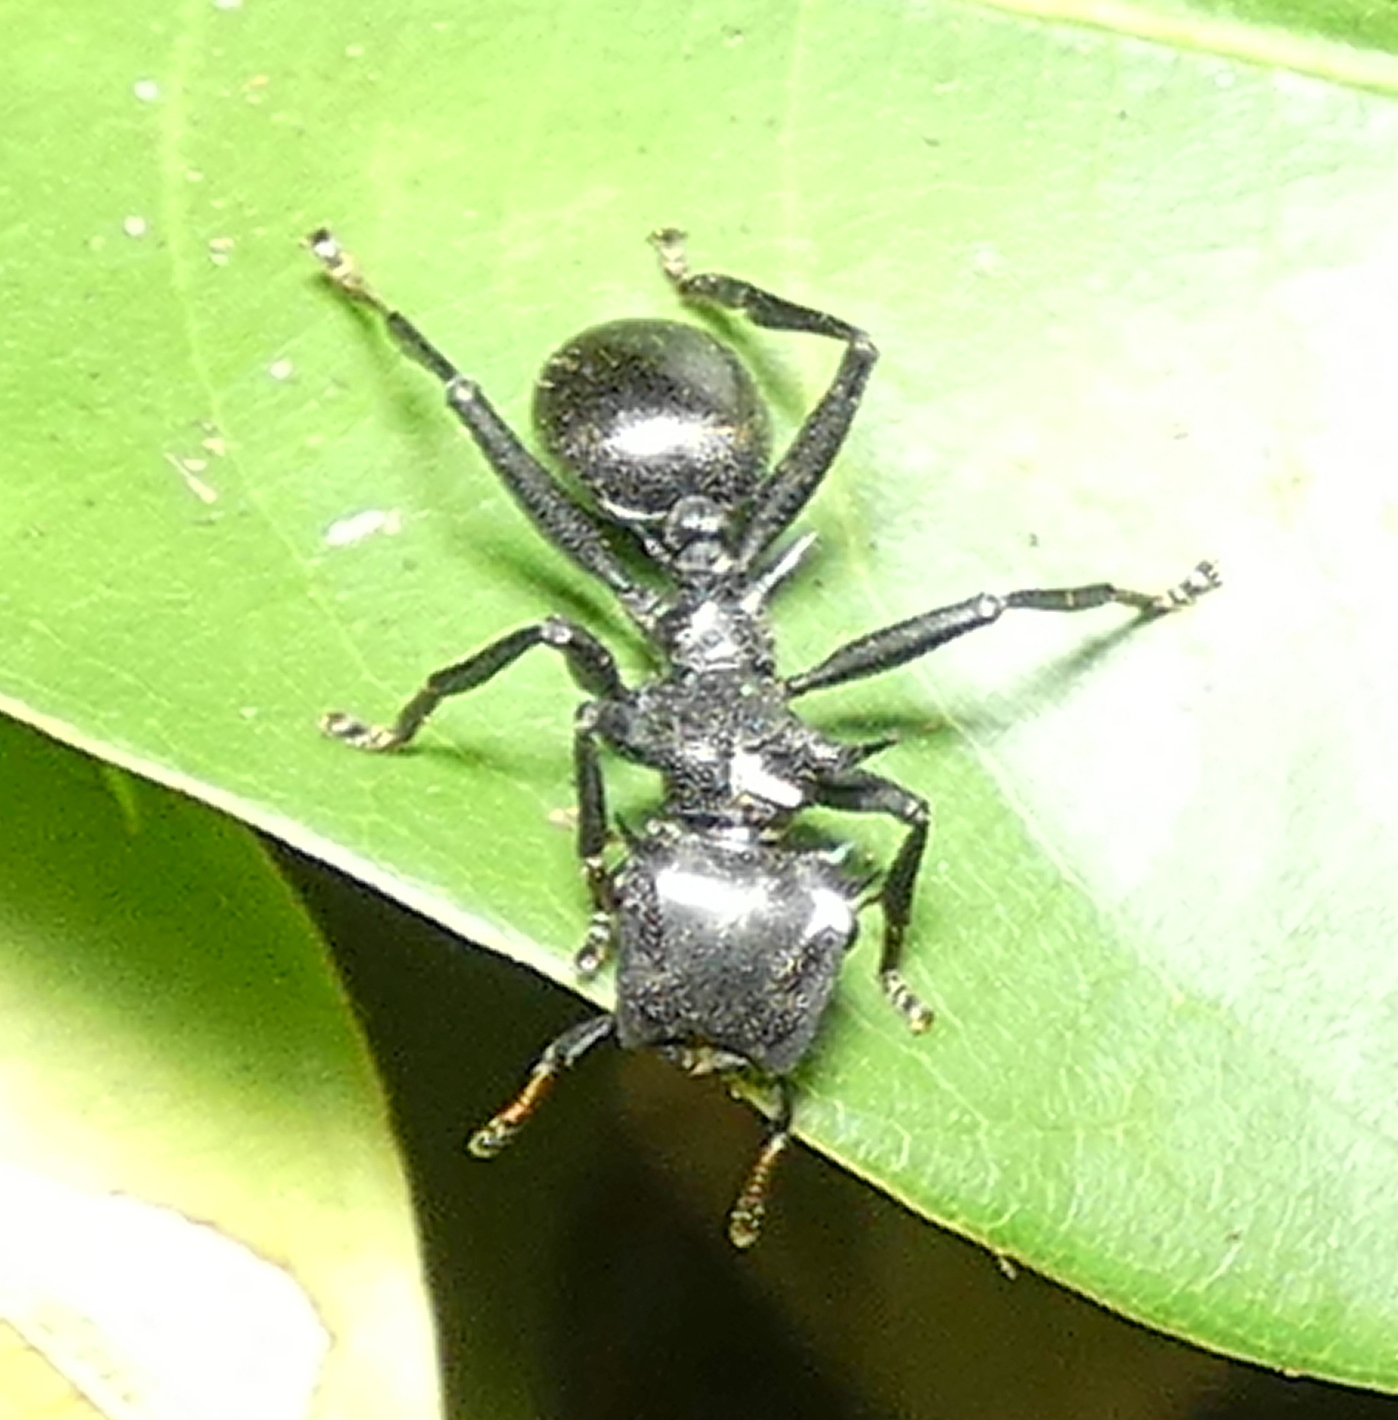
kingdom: Animalia
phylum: Arthropoda
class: Insecta
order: Hymenoptera
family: Formicidae
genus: Cephalotes
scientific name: Cephalotes atratus
